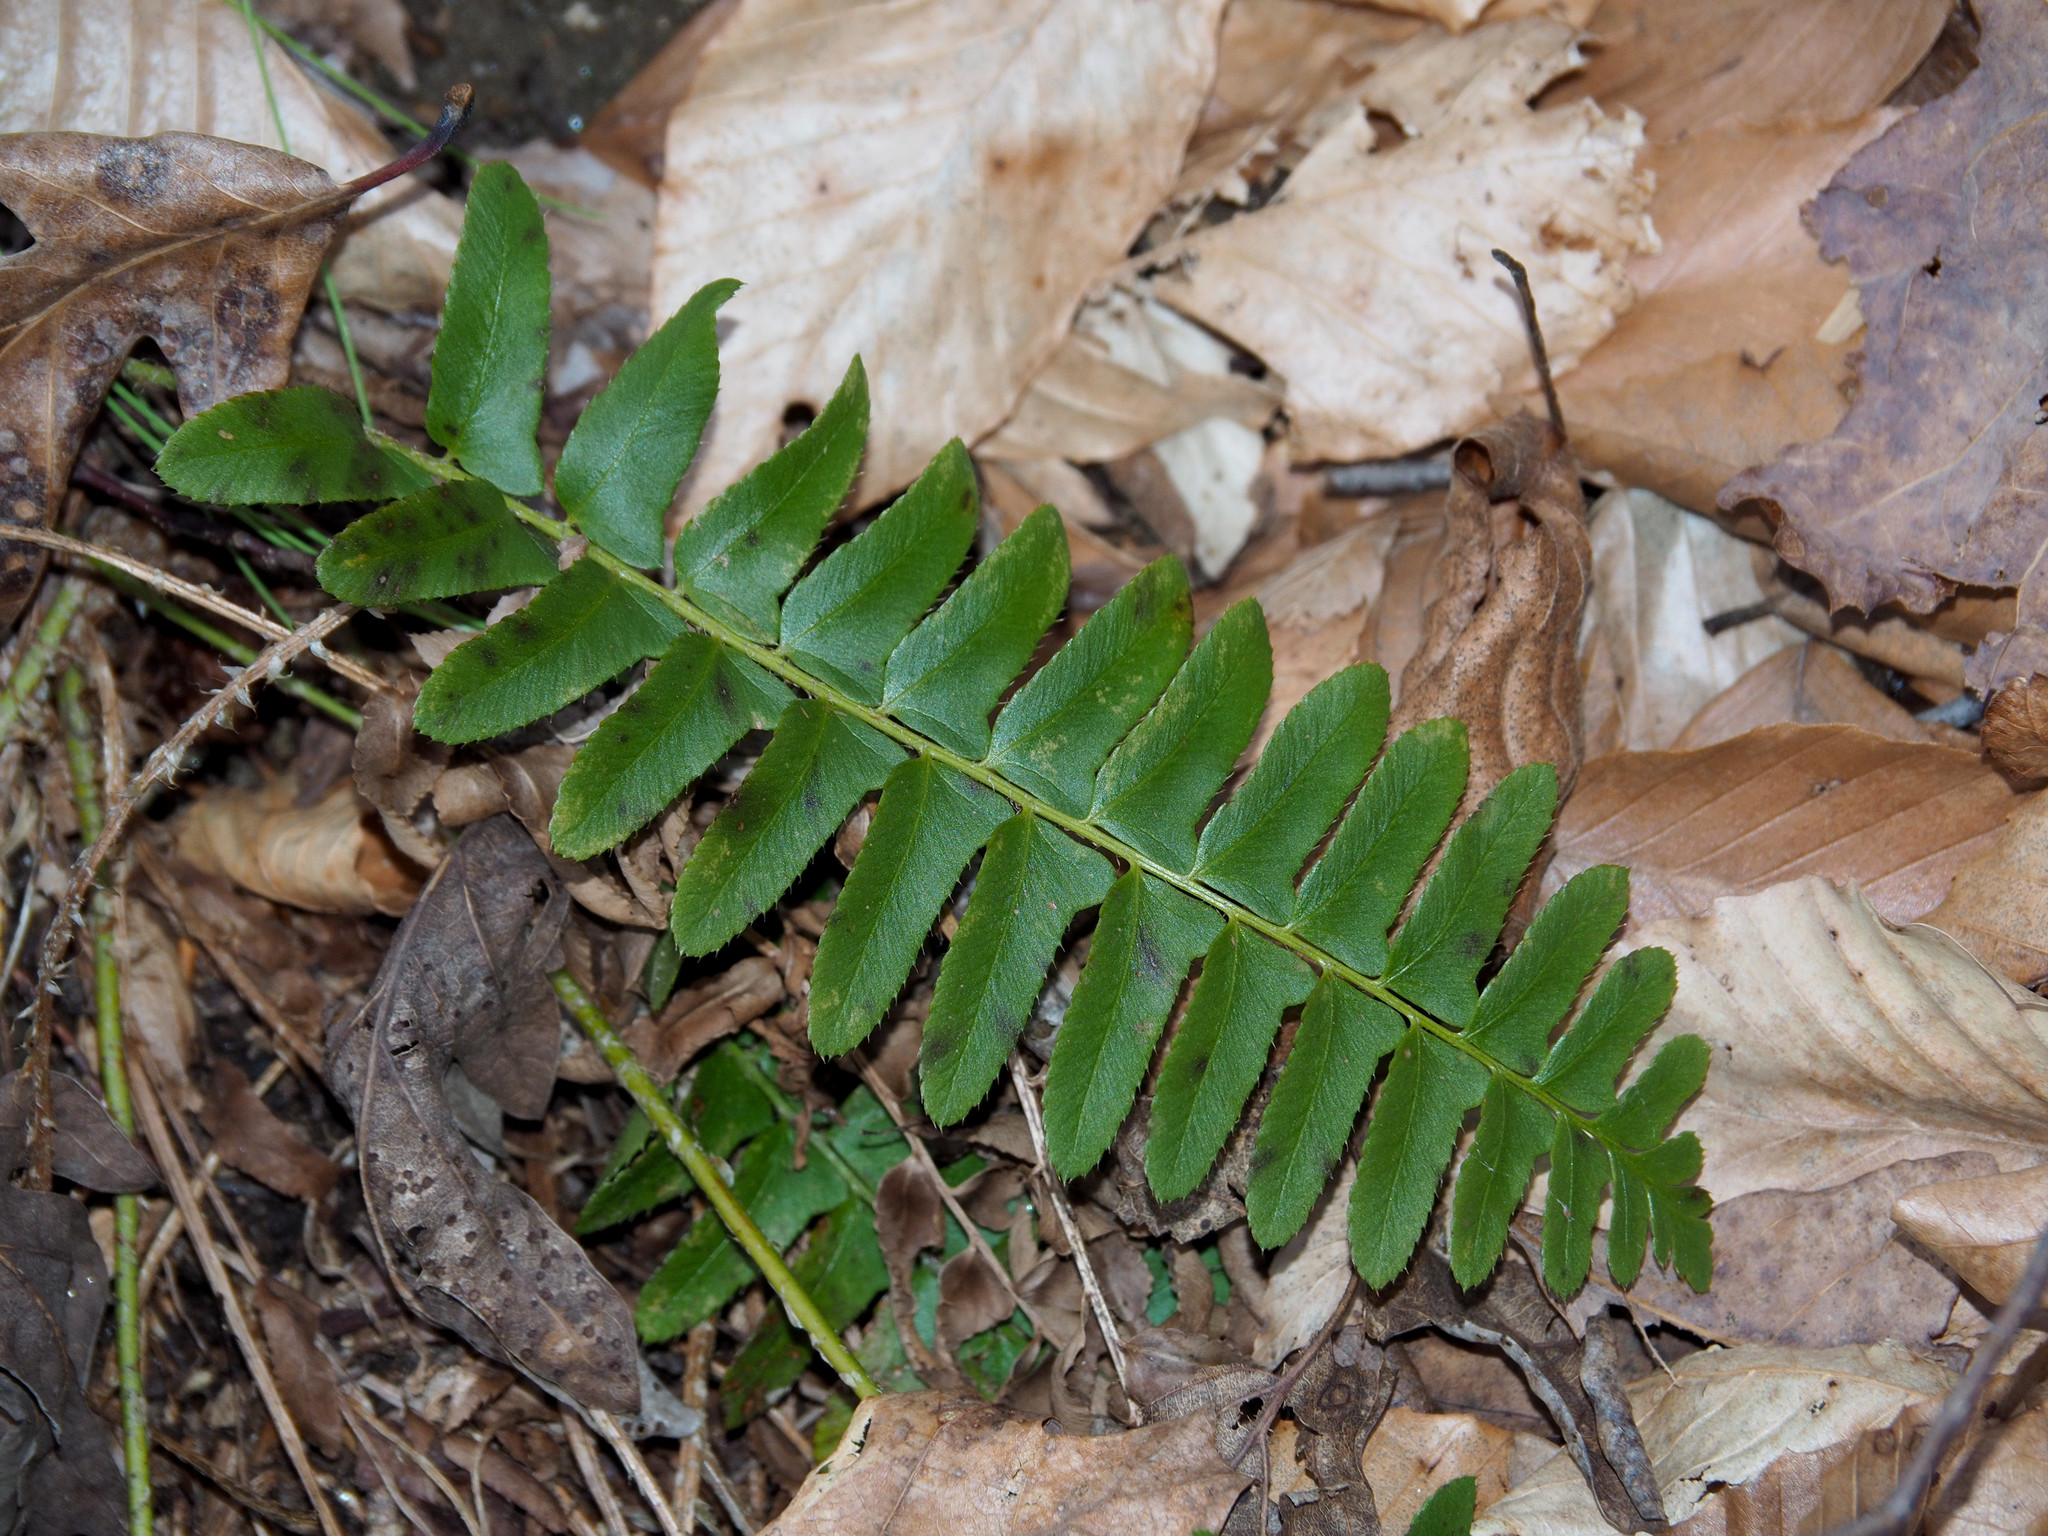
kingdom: Plantae
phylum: Tracheophyta
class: Polypodiopsida
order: Polypodiales
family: Dryopteridaceae
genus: Polystichum
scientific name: Polystichum acrostichoides
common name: Christmas fern
